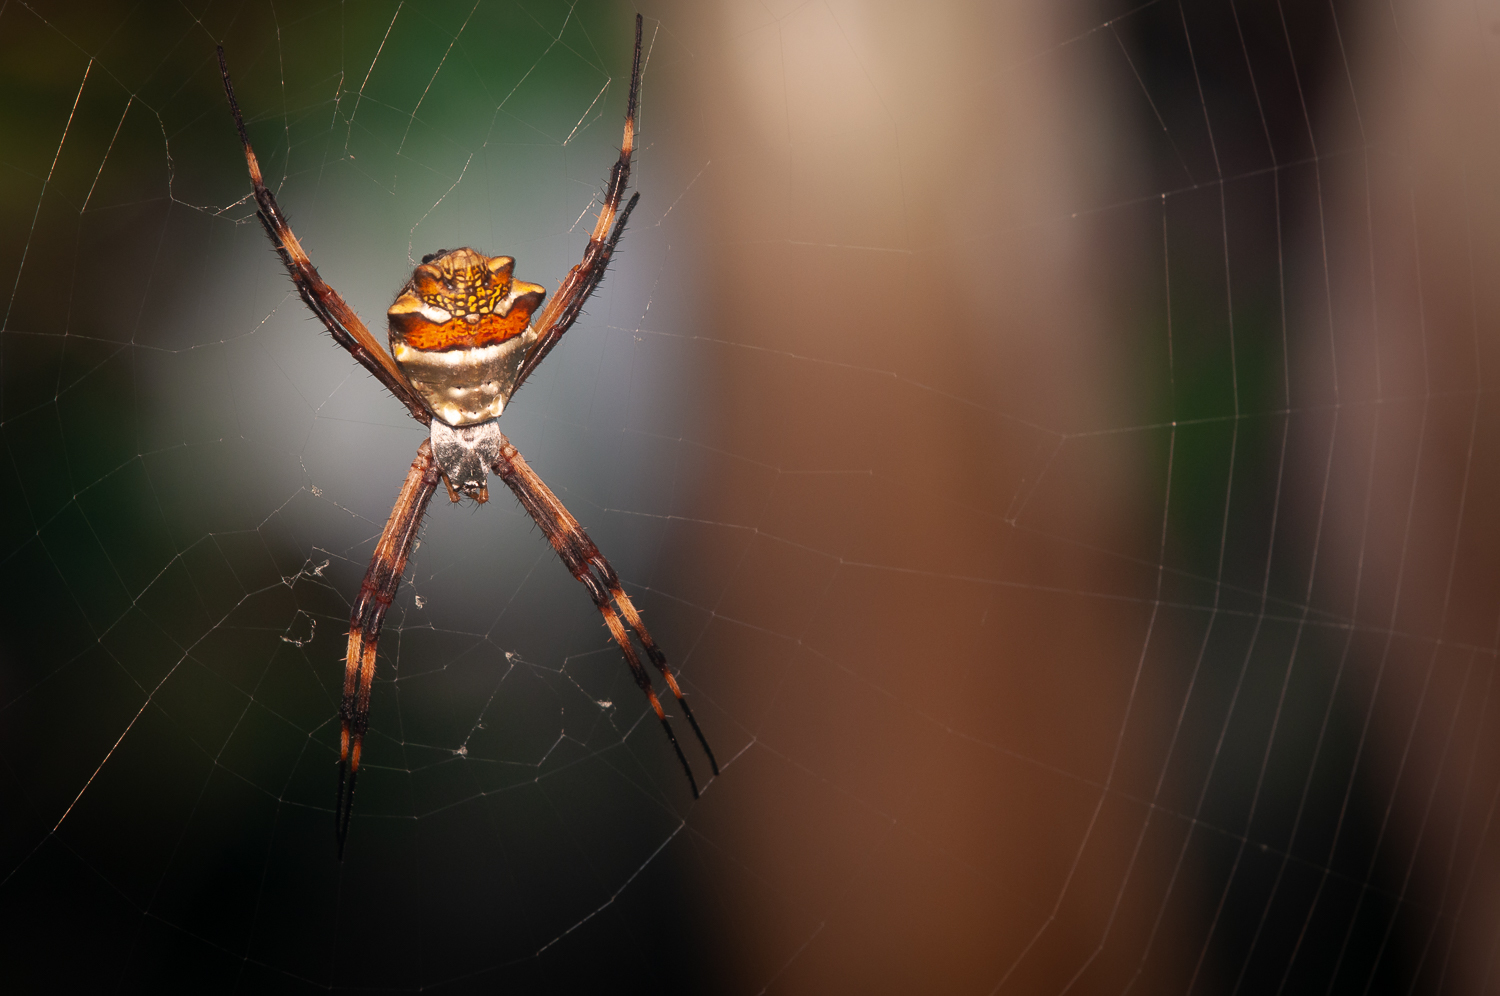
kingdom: Animalia
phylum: Arthropoda
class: Arachnida
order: Araneae
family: Araneidae
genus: Argiope
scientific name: Argiope argentata
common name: Orb weavers
